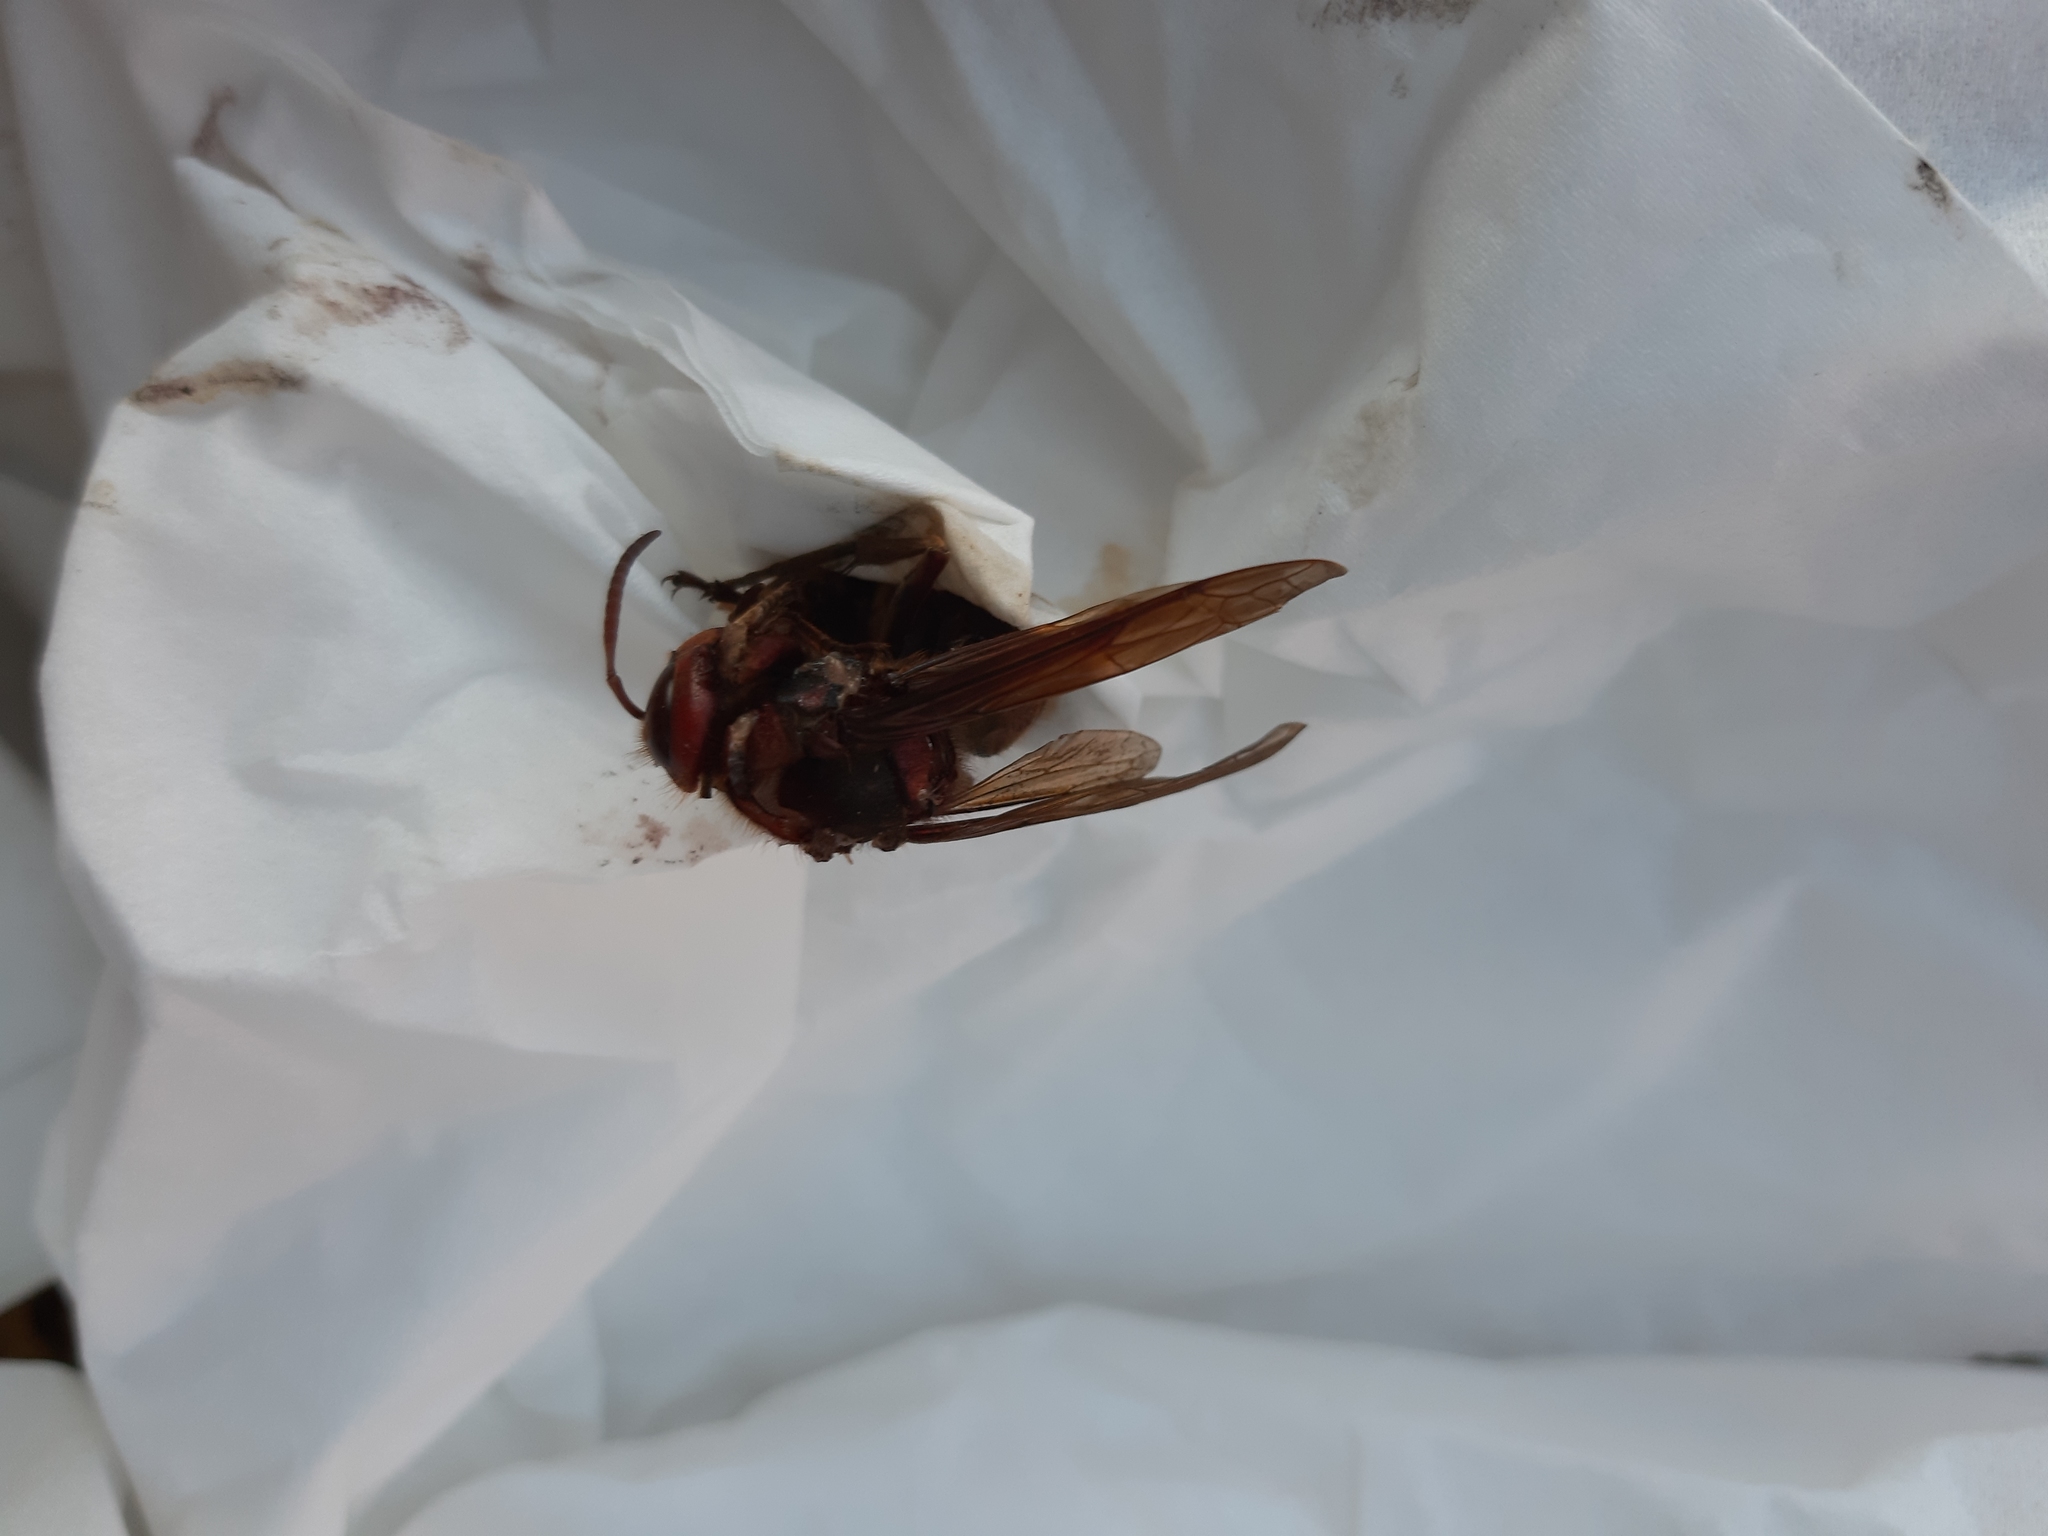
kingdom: Animalia
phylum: Arthropoda
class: Insecta
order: Hymenoptera
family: Vespidae
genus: Vespa
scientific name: Vespa crabro
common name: Hornet
